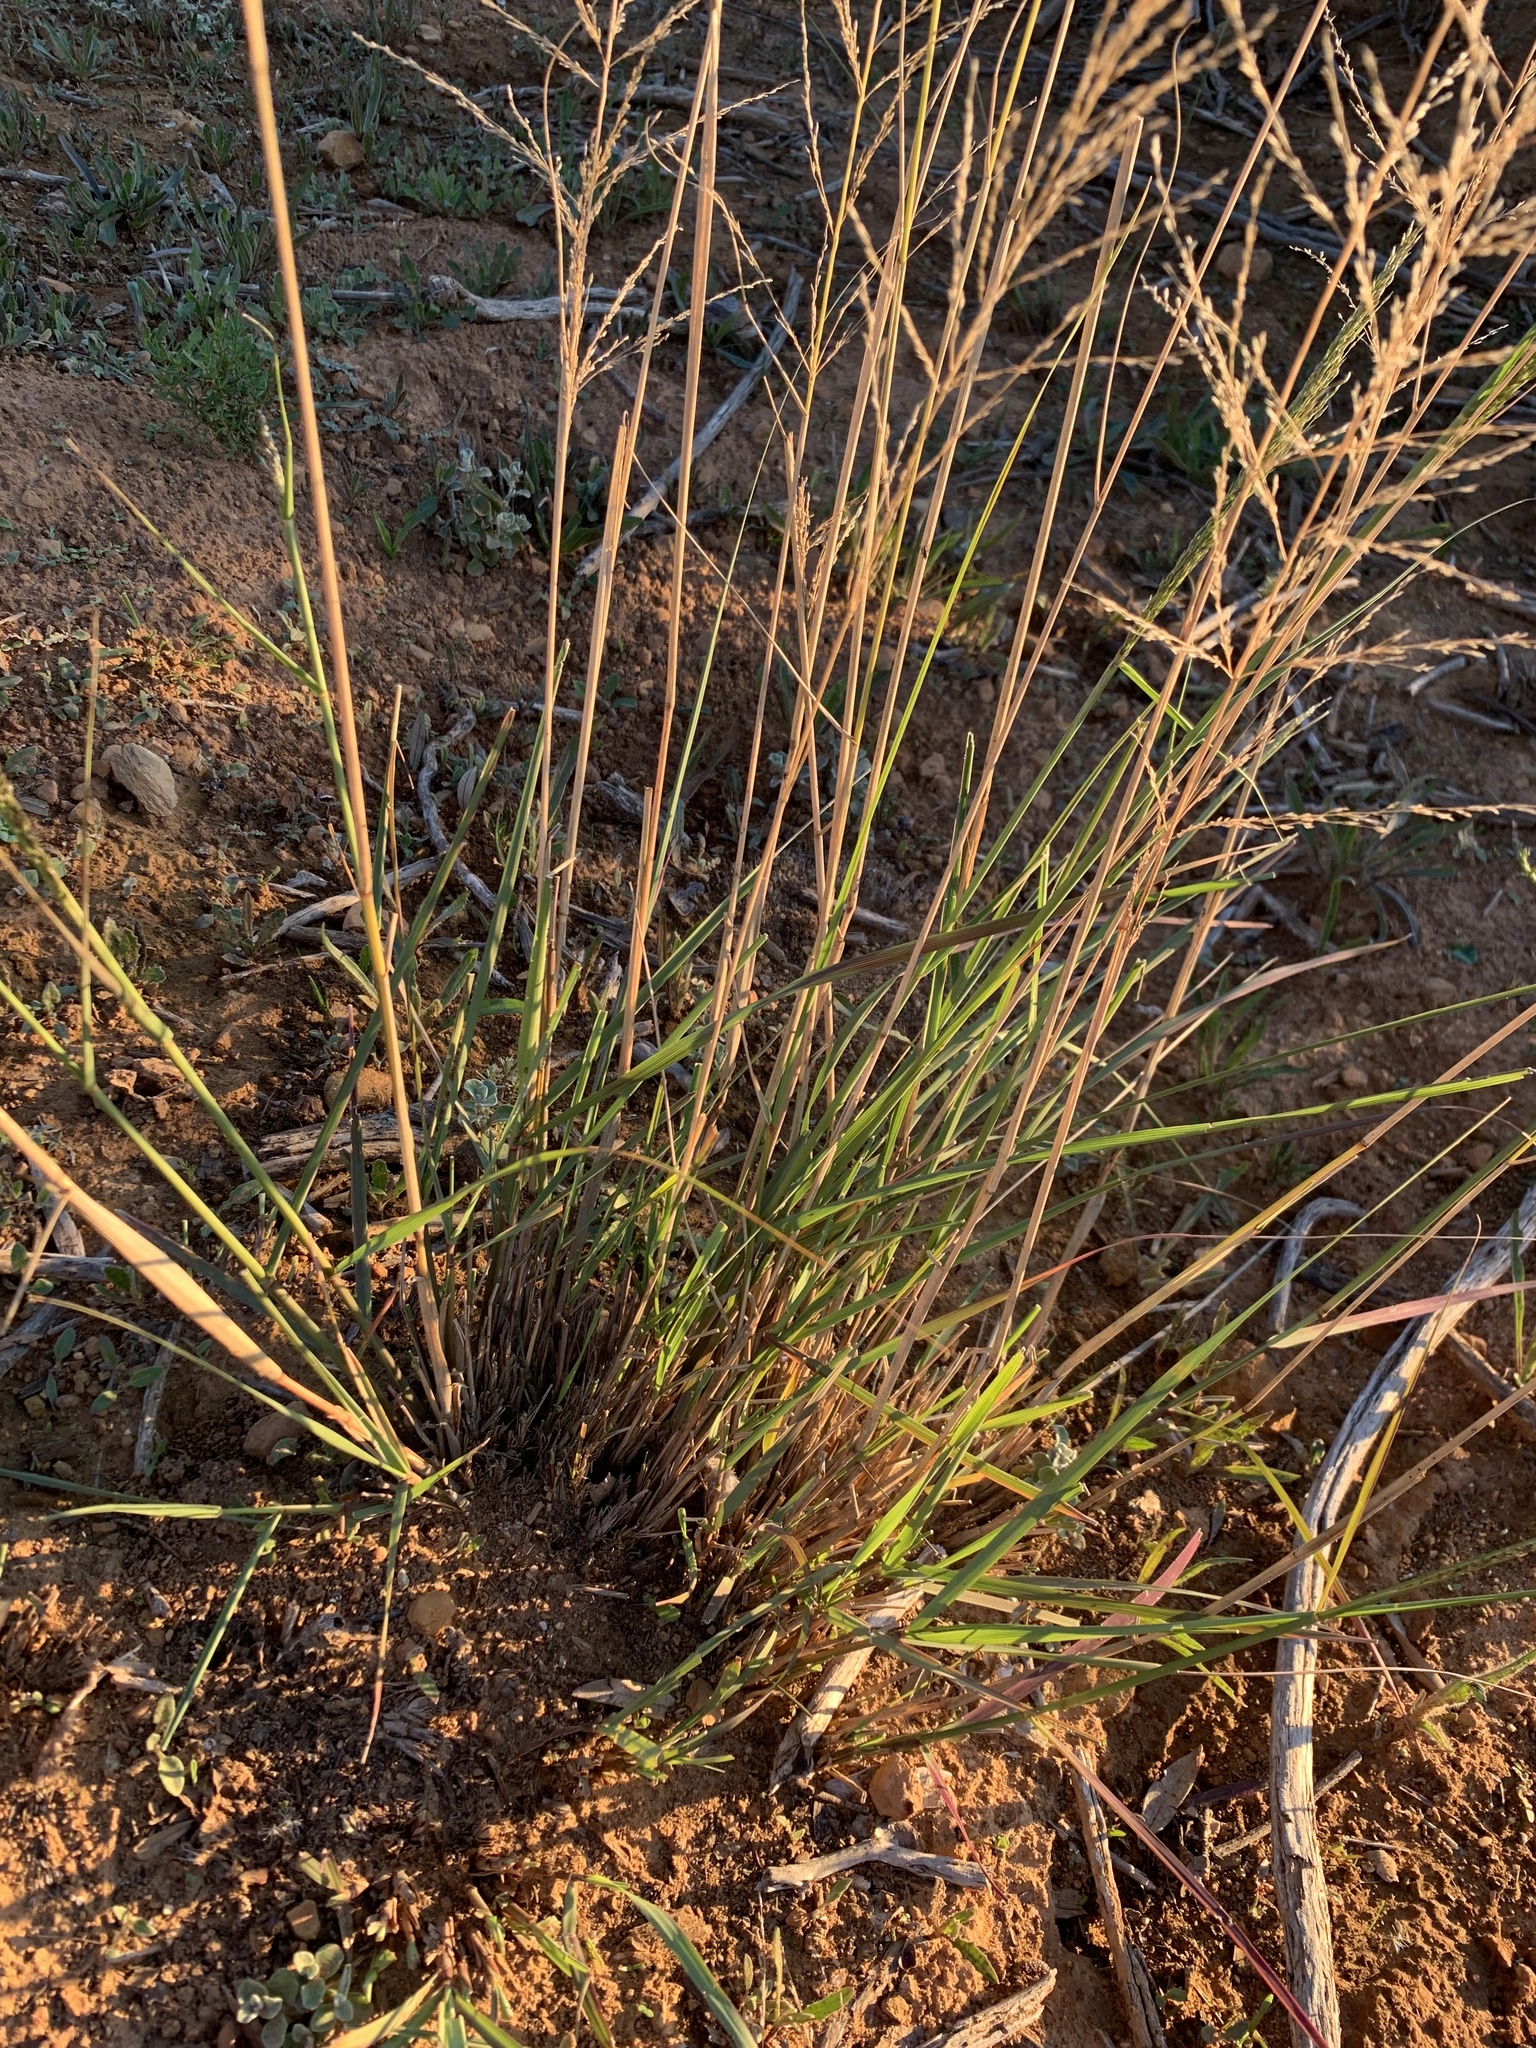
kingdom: Plantae
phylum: Tracheophyta
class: Liliopsida
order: Poales
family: Poaceae
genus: Eragrostis
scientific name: Eragrostis curvula
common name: African love-grass
